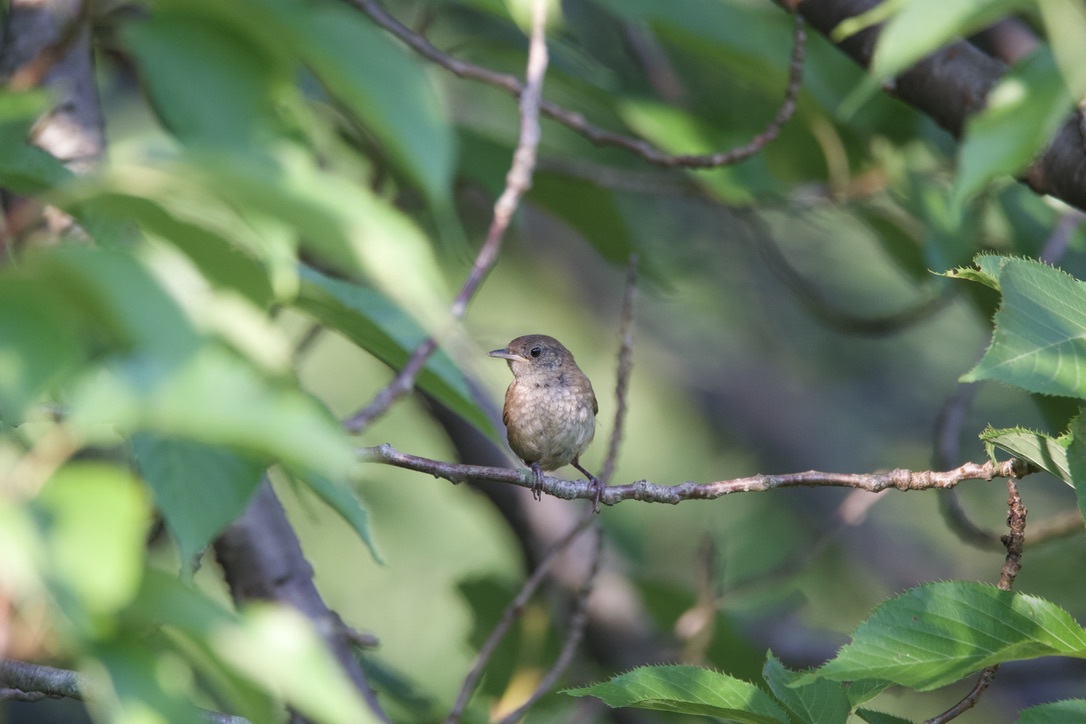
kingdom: Animalia
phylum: Chordata
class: Aves
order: Passeriformes
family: Troglodytidae
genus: Troglodytes
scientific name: Troglodytes aedon
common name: House wren
